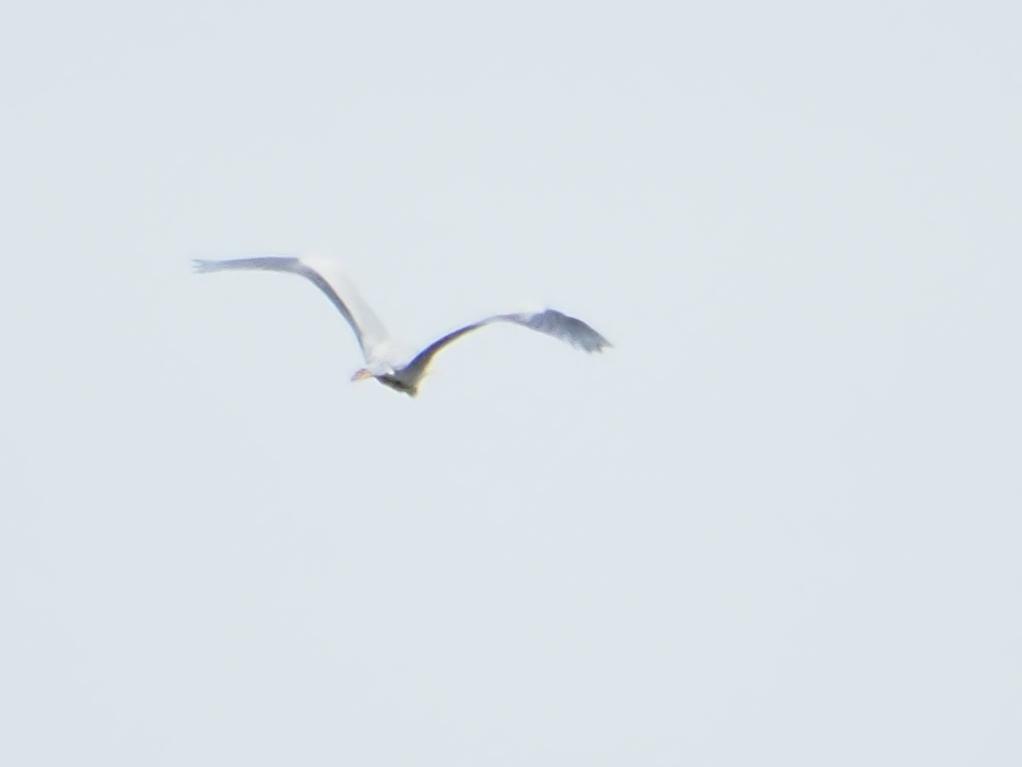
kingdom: Animalia
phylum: Chordata
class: Aves
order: Pelecaniformes
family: Ardeidae
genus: Ardea
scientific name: Ardea cinerea
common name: Grey heron
